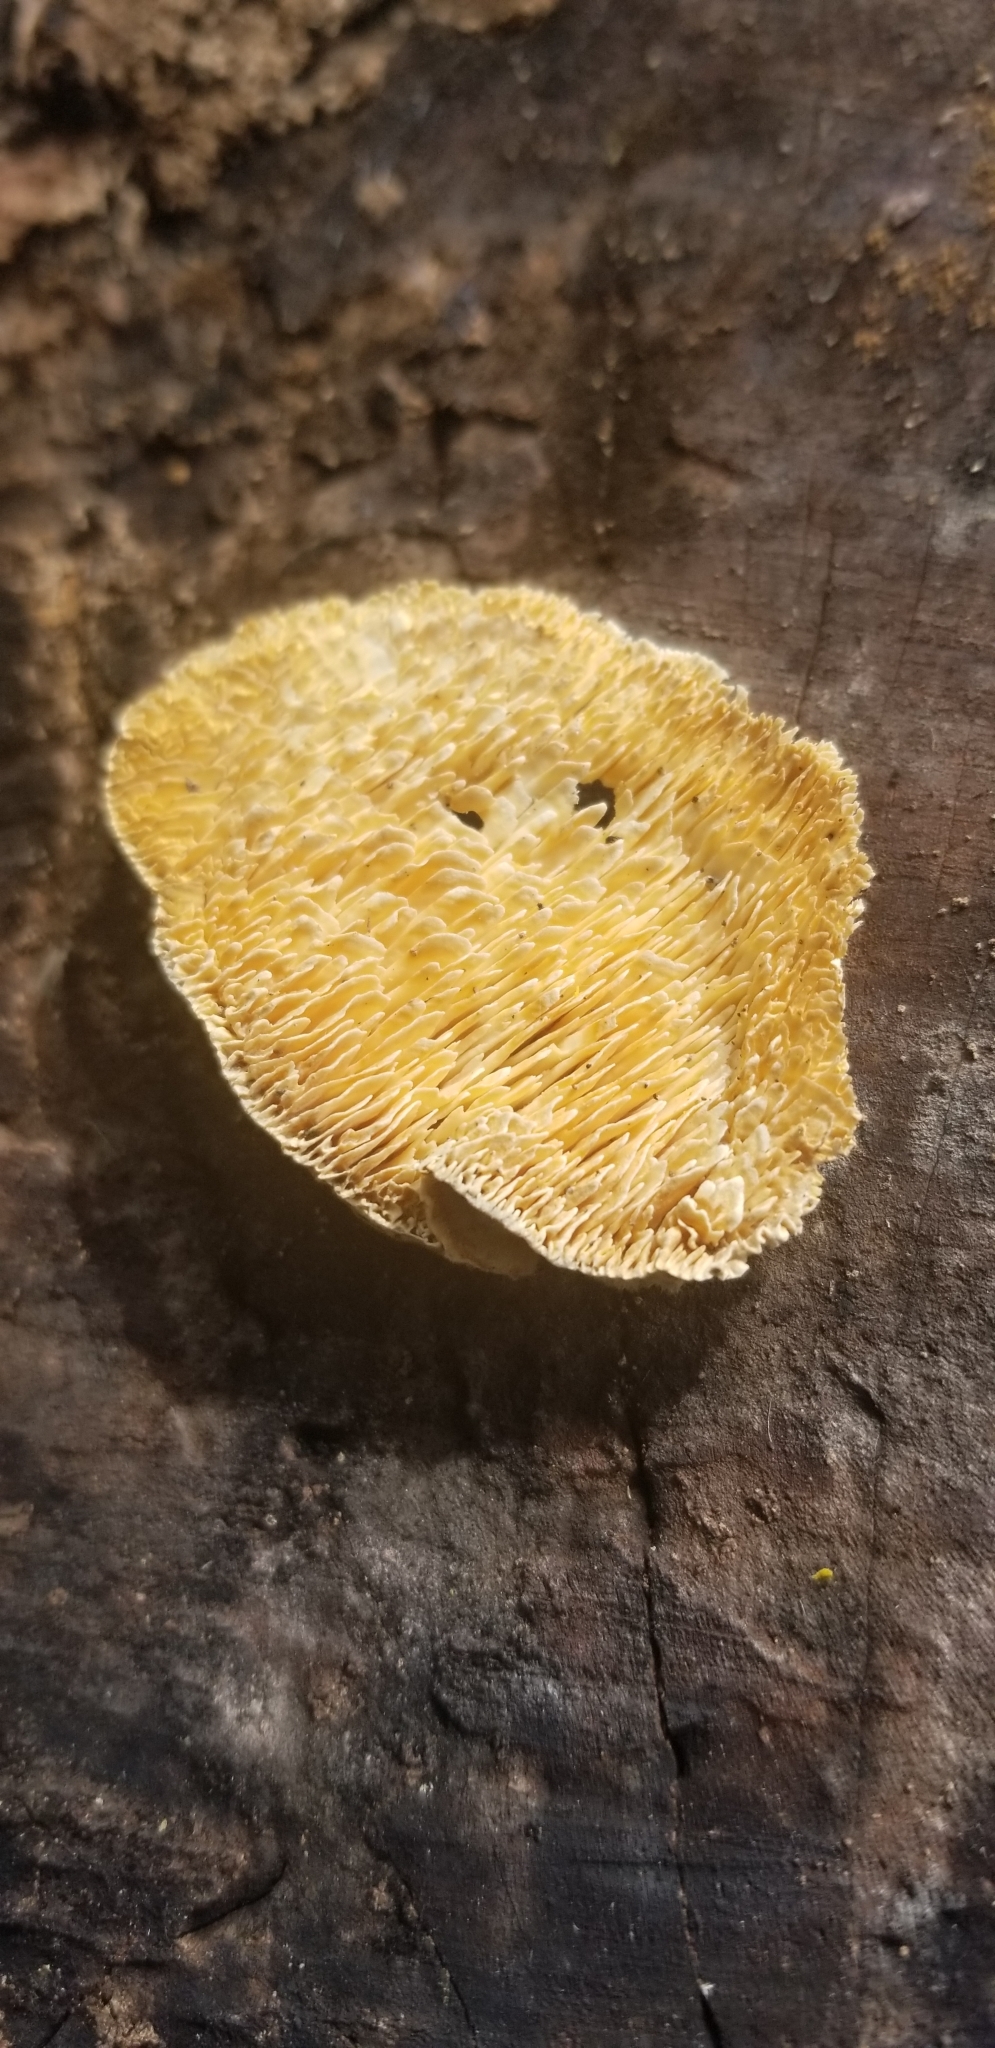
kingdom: Fungi
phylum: Basidiomycota
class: Agaricomycetes
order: Polyporales
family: Meruliaceae
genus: Irpiciporus
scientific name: Irpiciporus pachyodon
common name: Marshmallow polypore
